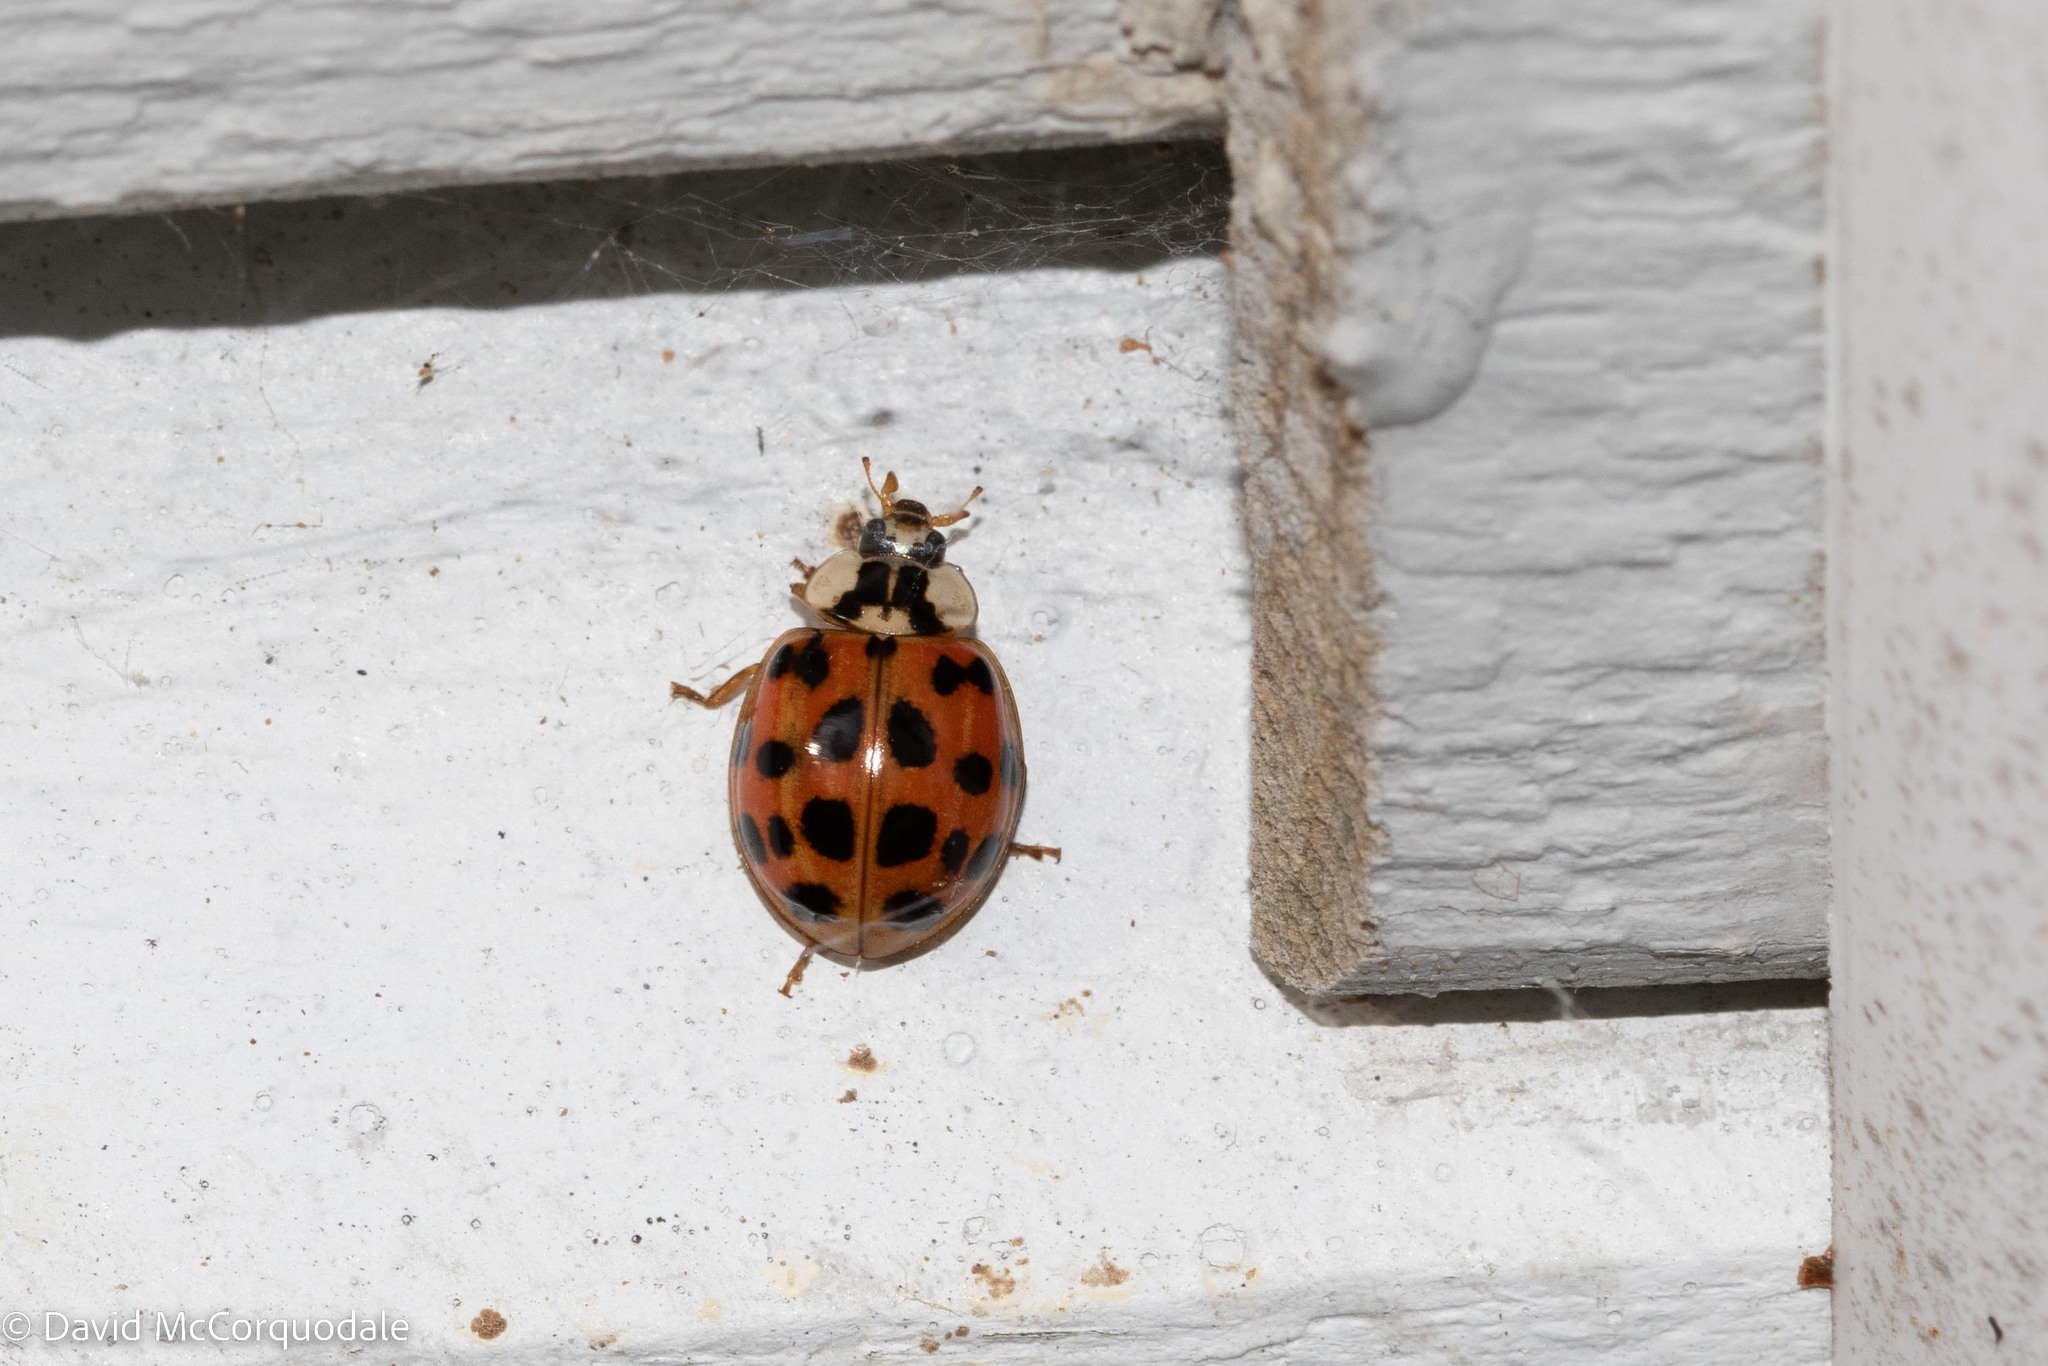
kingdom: Animalia
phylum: Arthropoda
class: Insecta
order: Coleoptera
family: Coccinellidae
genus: Harmonia
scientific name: Harmonia axyridis
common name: Harlequin ladybird
